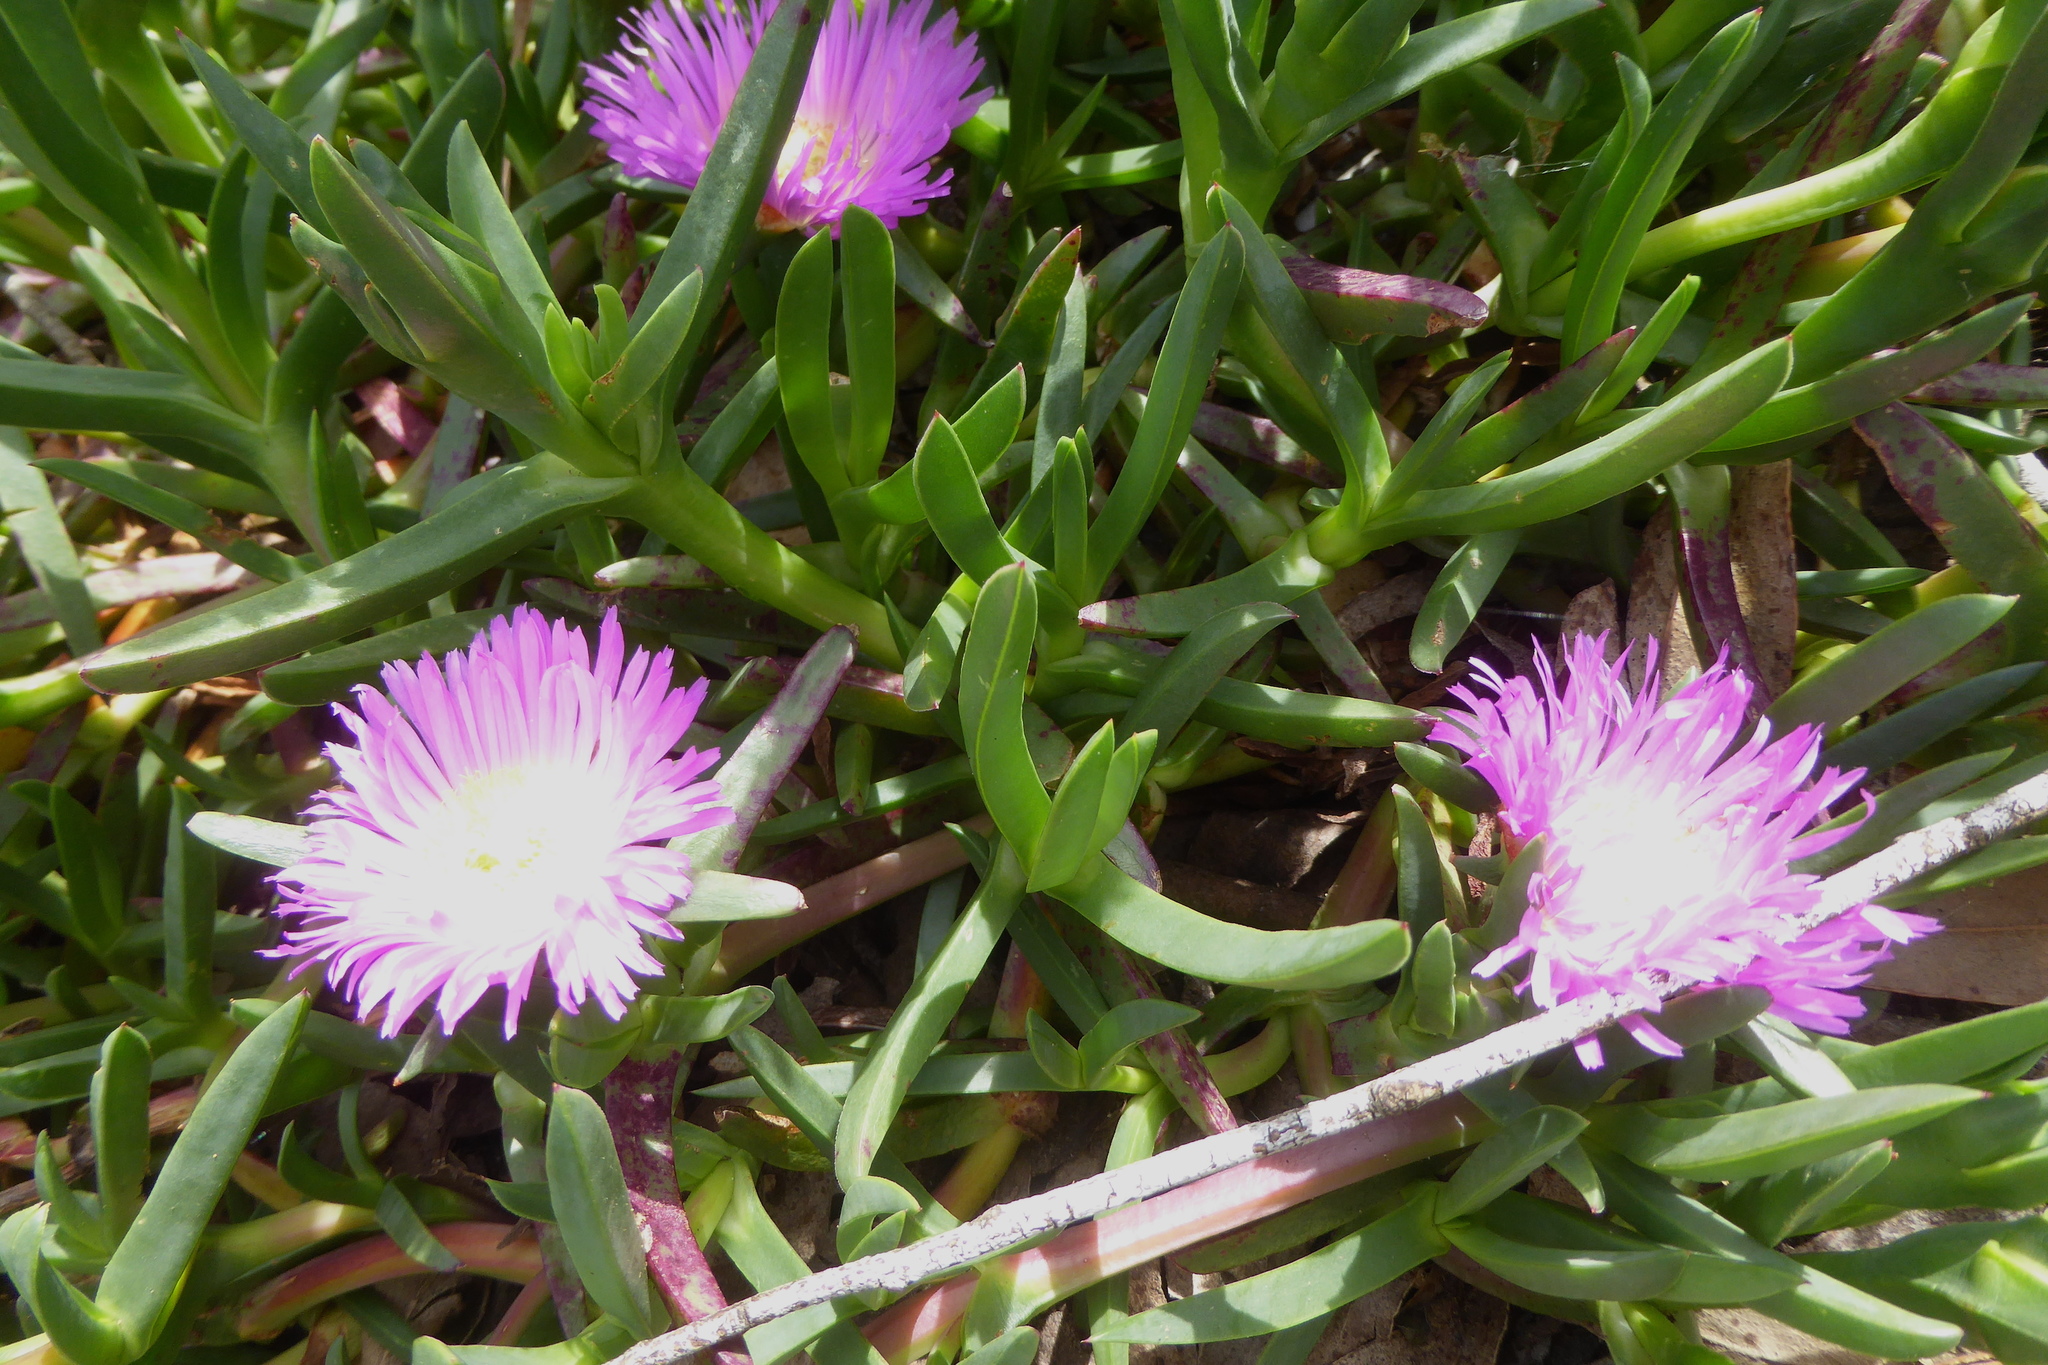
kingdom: Plantae
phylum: Tracheophyta
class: Magnoliopsida
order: Caryophyllales
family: Aizoaceae
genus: Carpobrotus
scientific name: Carpobrotus chilensis
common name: Sea fig
